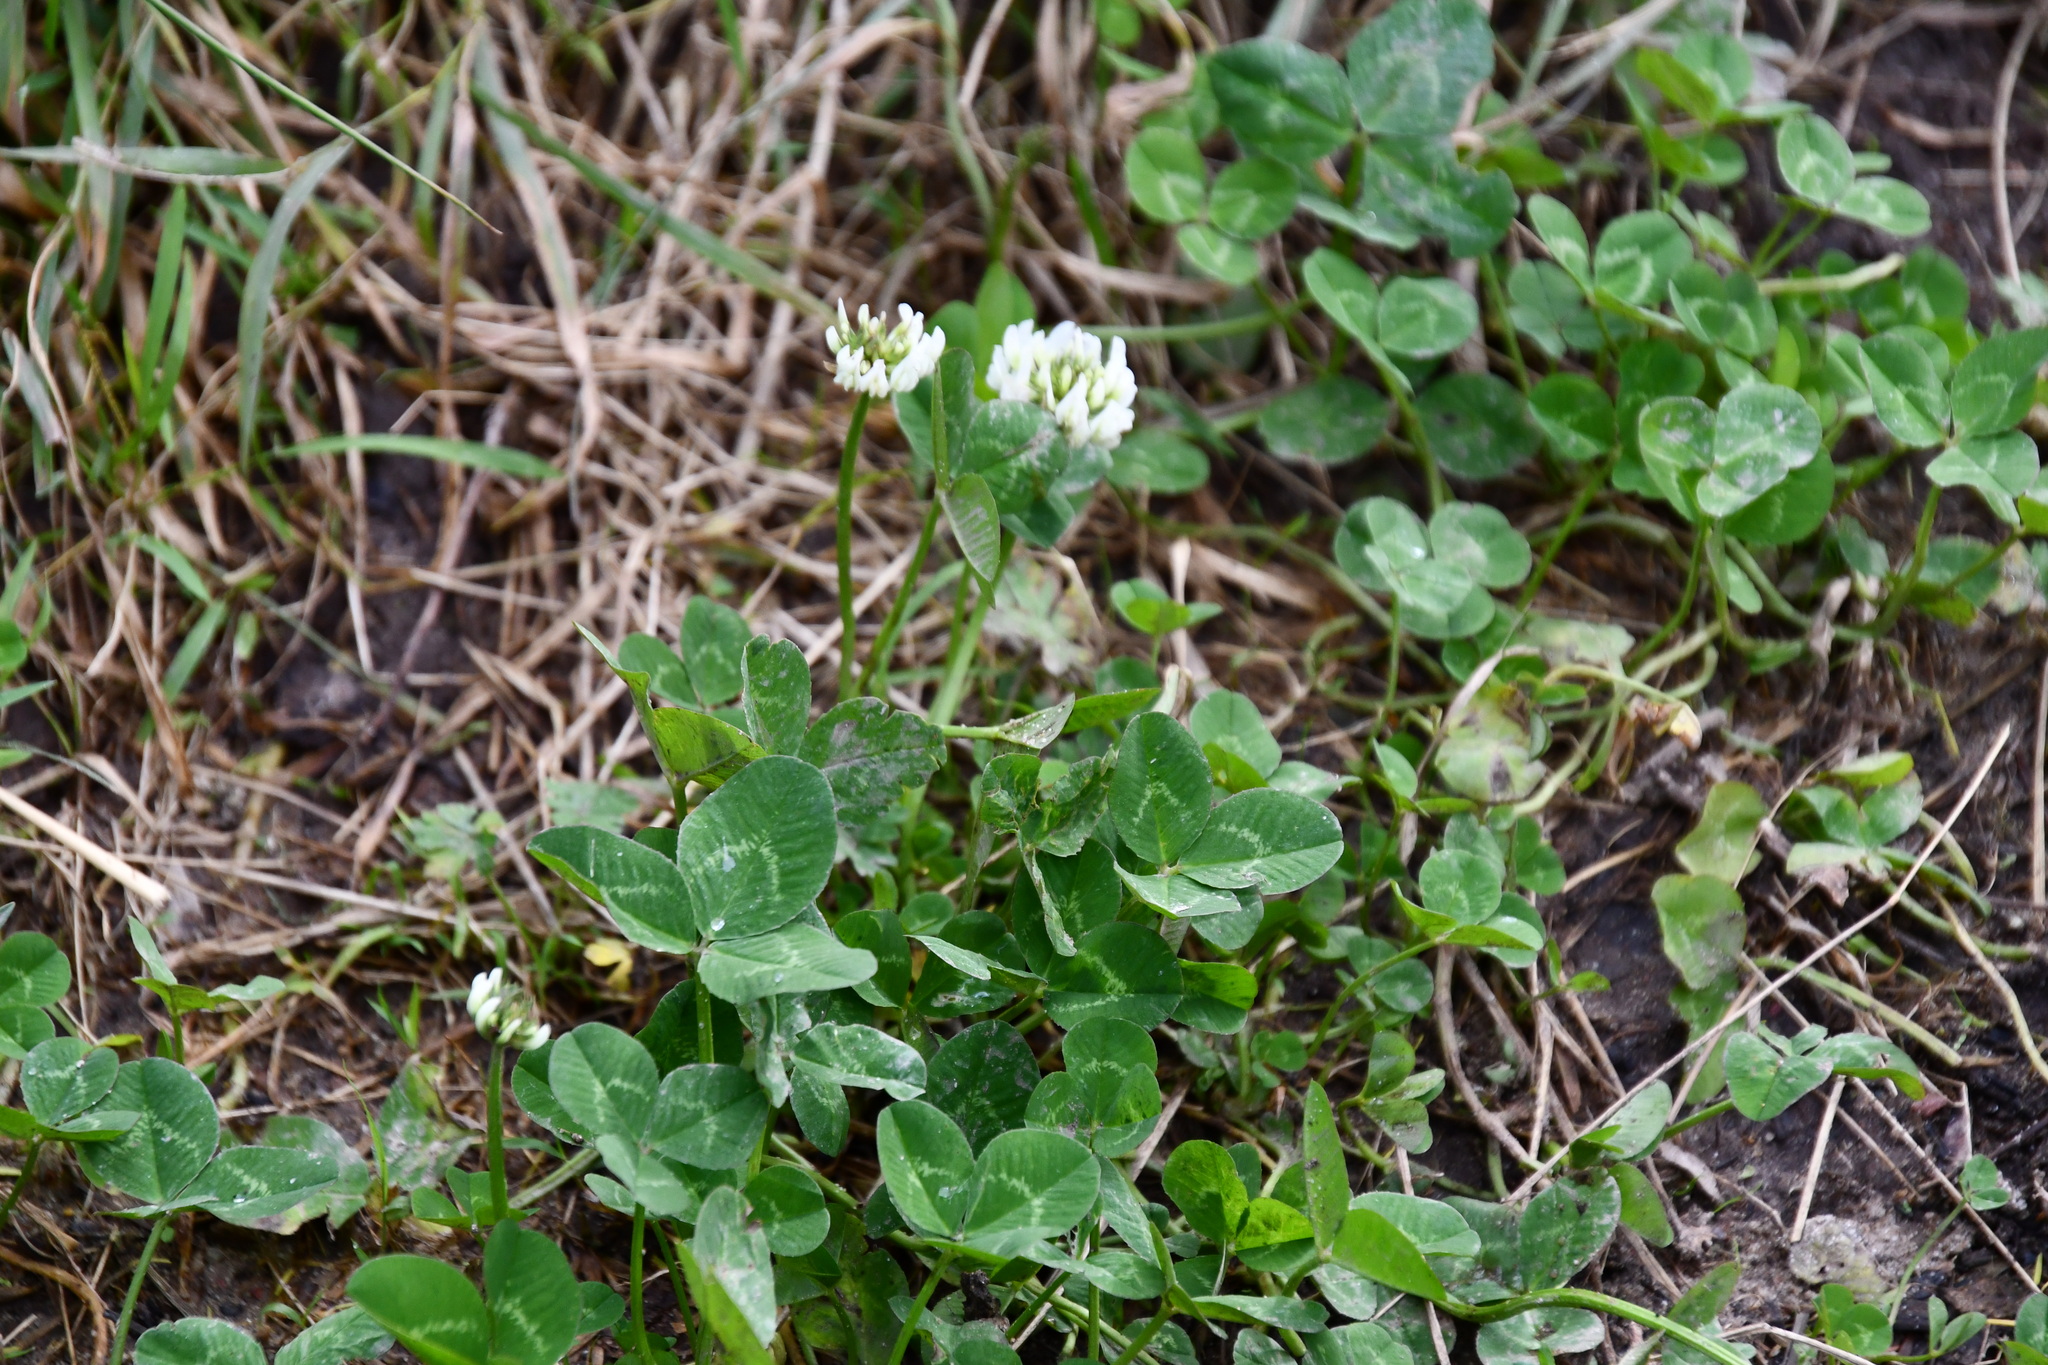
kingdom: Plantae
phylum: Tracheophyta
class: Magnoliopsida
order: Fabales
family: Fabaceae
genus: Trifolium
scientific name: Trifolium repens
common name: White clover
